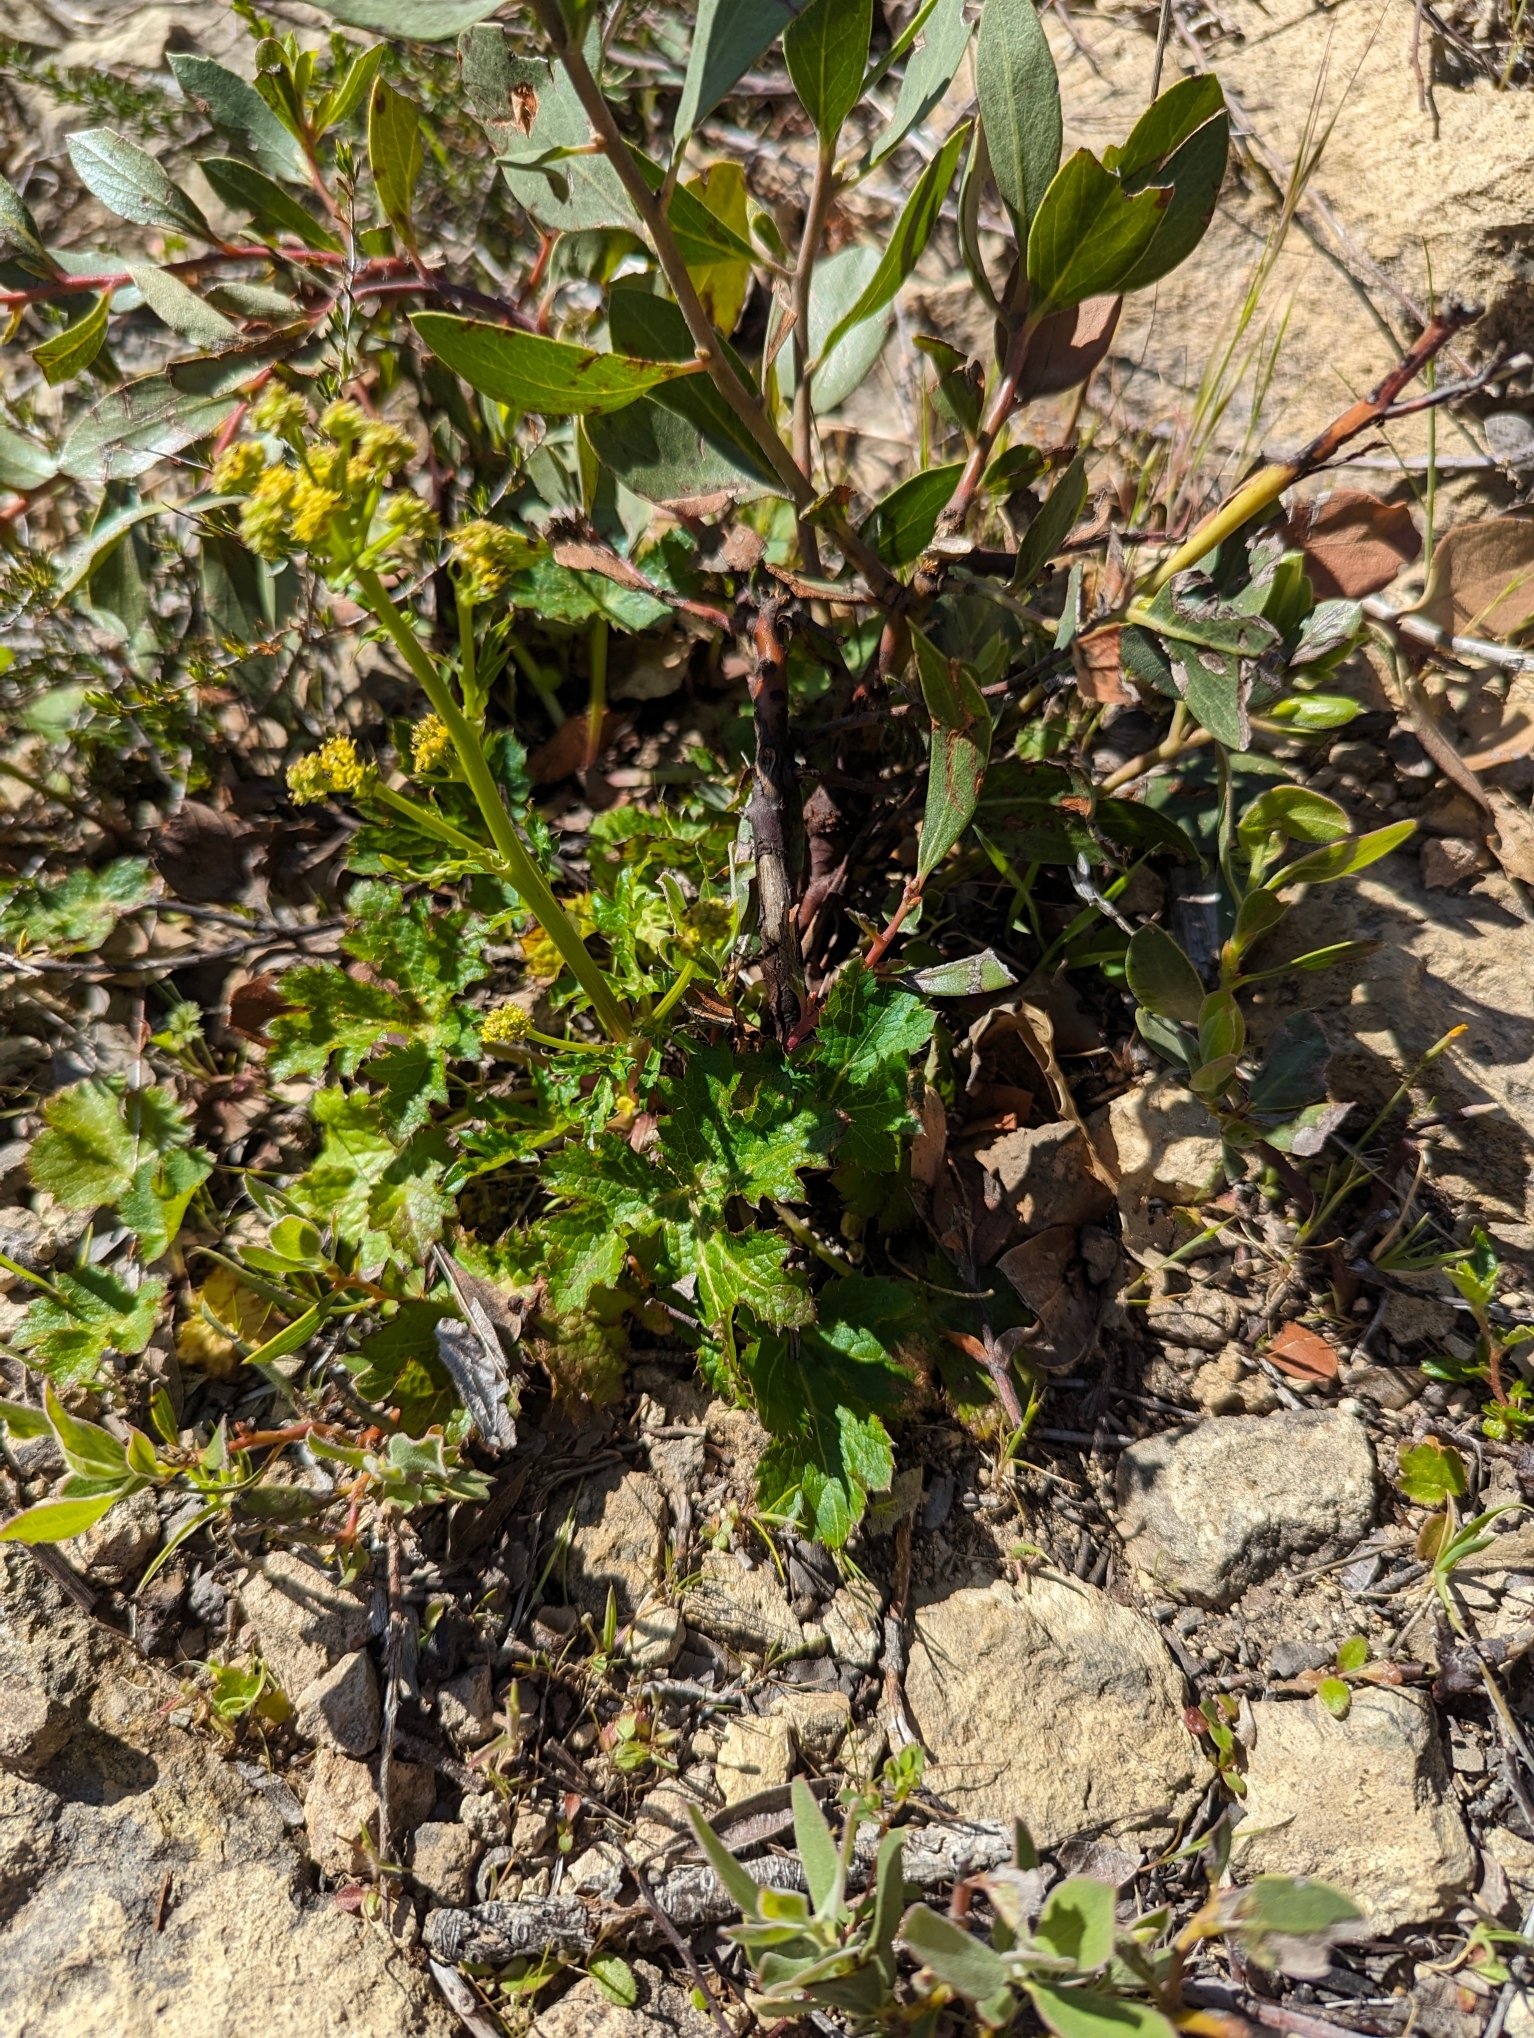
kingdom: Plantae
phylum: Tracheophyta
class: Magnoliopsida
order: Apiales
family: Apiaceae
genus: Sanicula
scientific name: Sanicula laciniata
